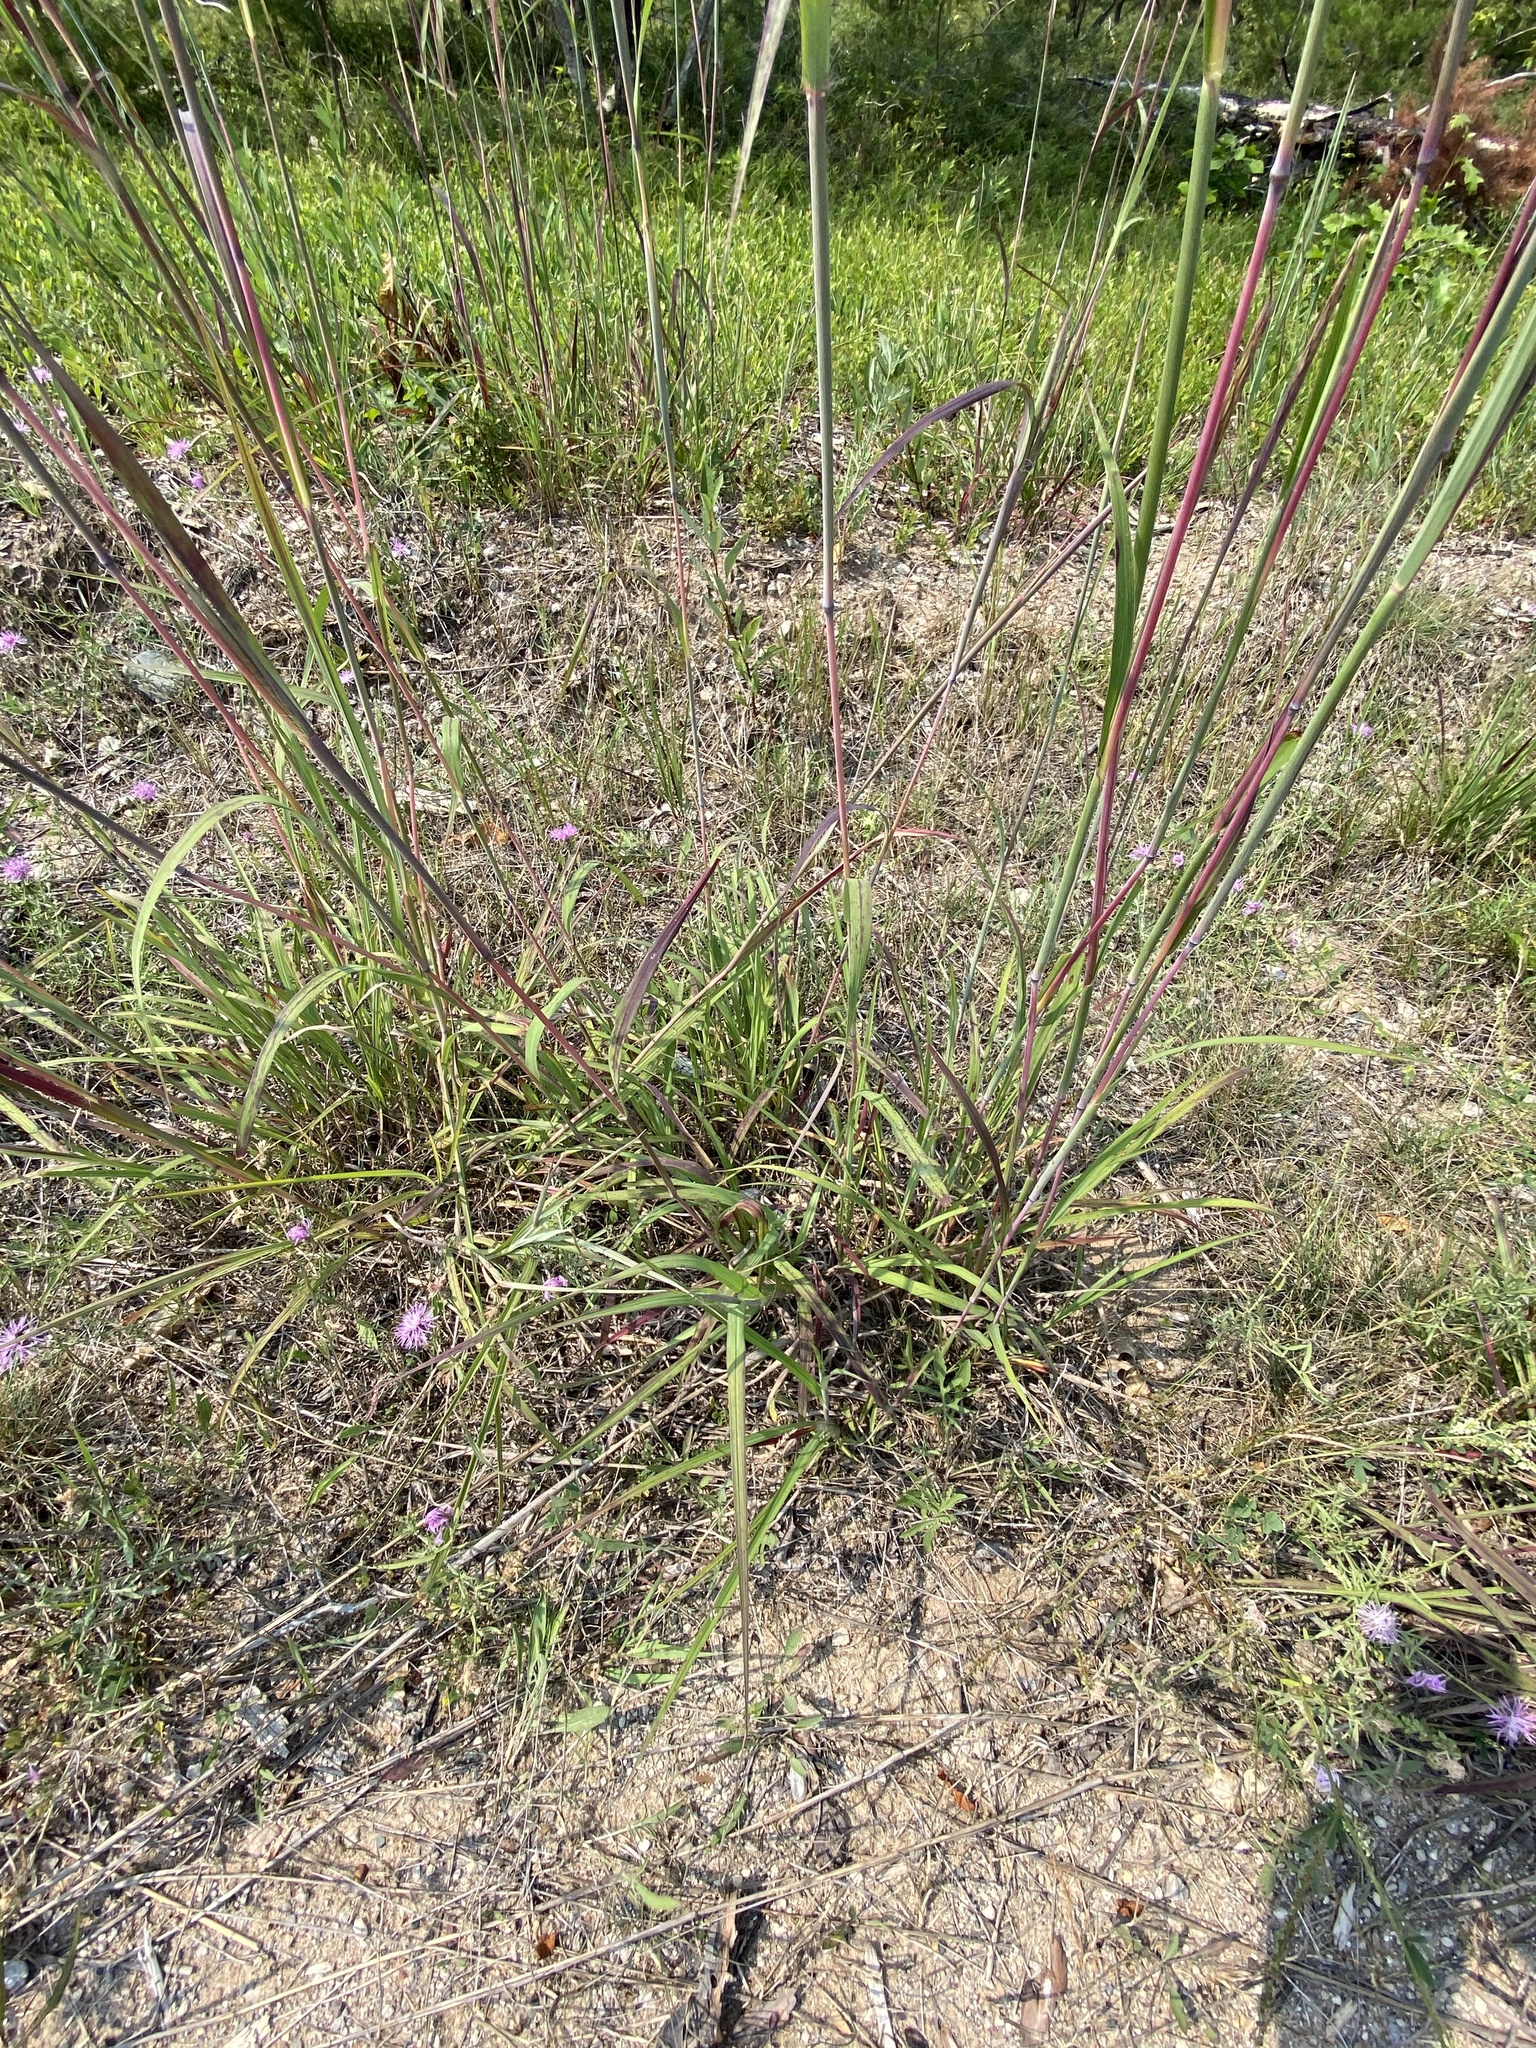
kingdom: Plantae
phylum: Tracheophyta
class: Liliopsida
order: Poales
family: Poaceae
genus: Andropogon
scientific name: Andropogon gerardi
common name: Big bluestem
